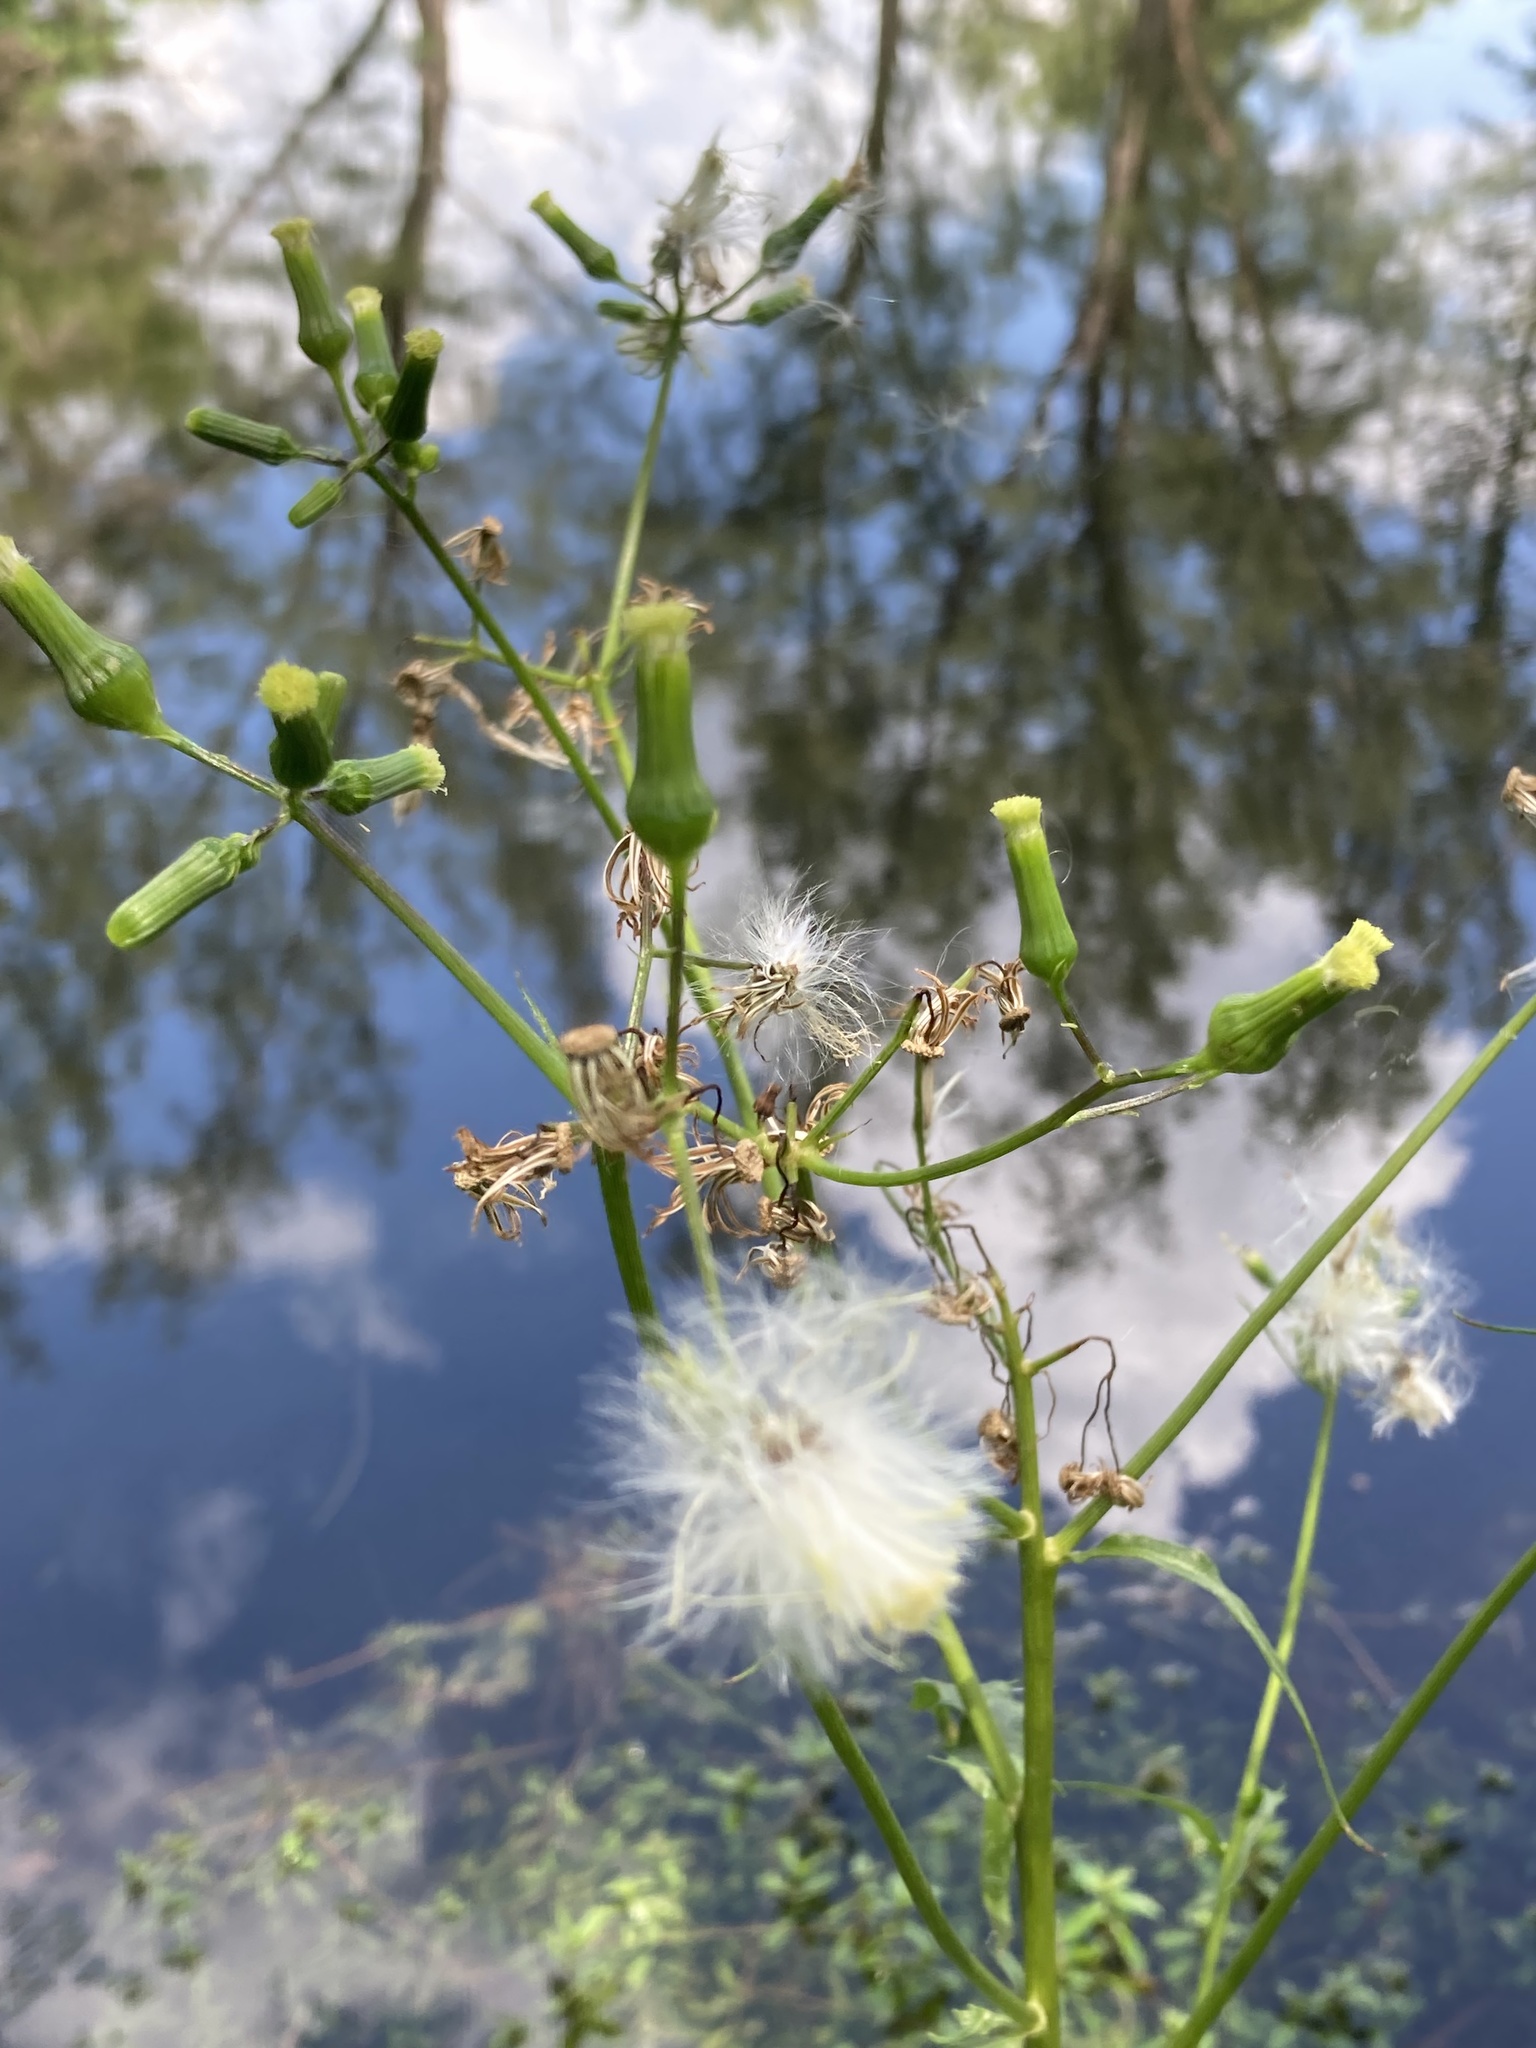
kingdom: Plantae
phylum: Tracheophyta
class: Magnoliopsida
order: Asterales
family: Asteraceae
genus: Erechtites
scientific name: Erechtites hieraciifolius
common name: American burnweed
